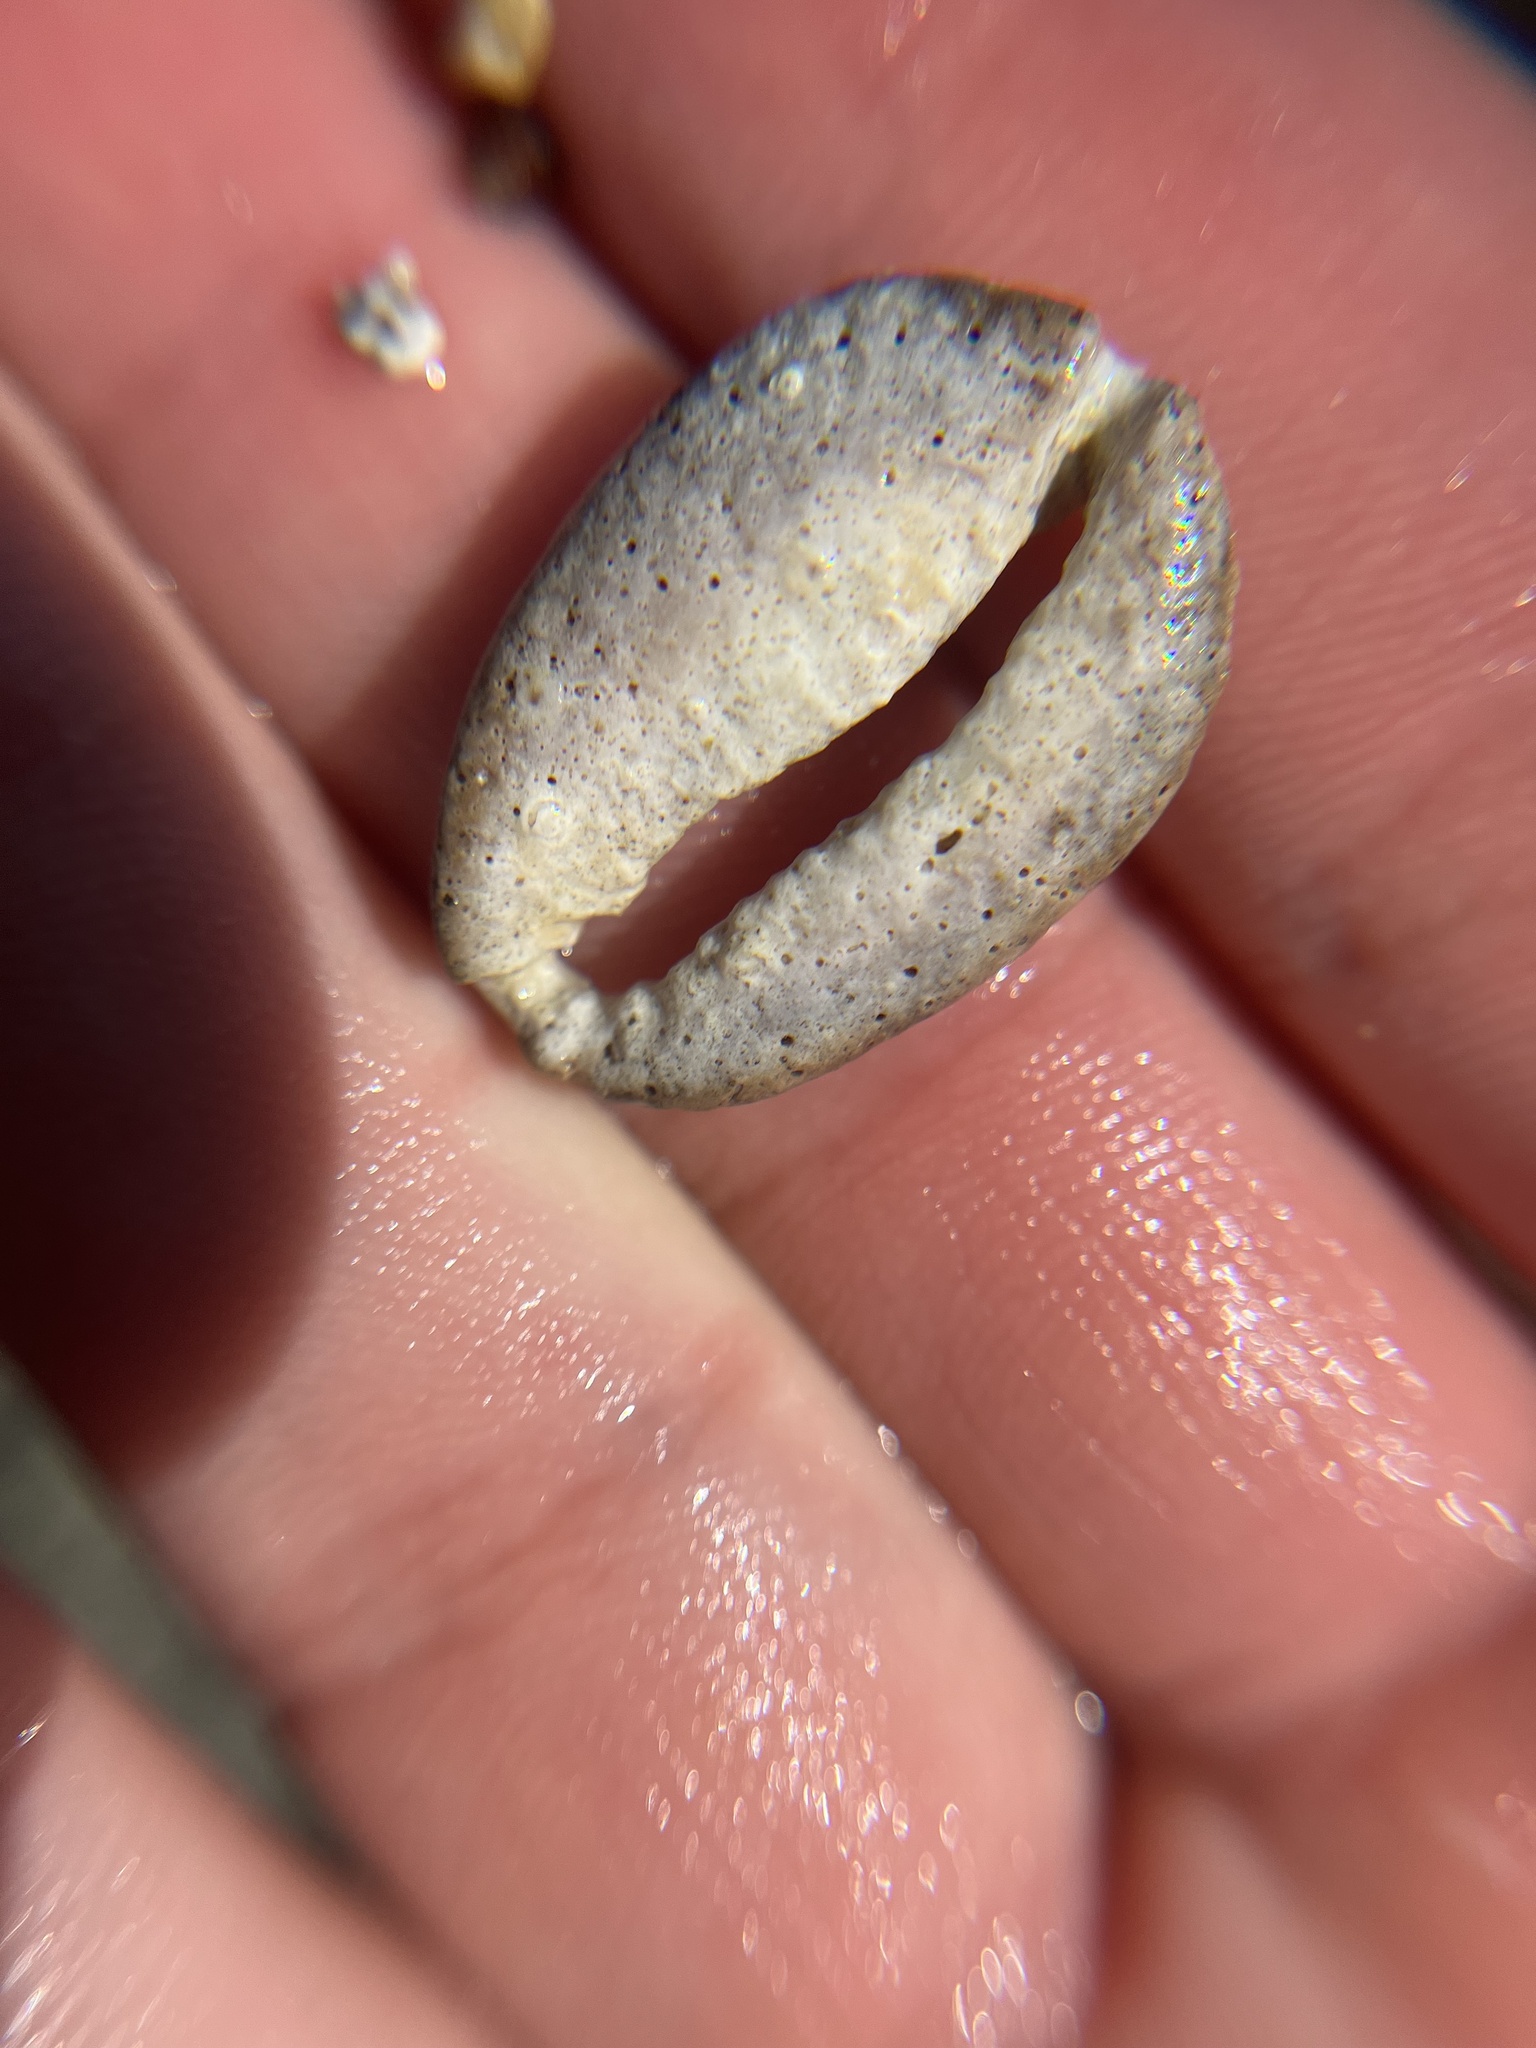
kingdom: Animalia
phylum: Mollusca
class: Gastropoda
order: Littorinimorpha
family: Cypraeidae
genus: Monetaria
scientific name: Monetaria caputophidii
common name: Snake's head cowry
